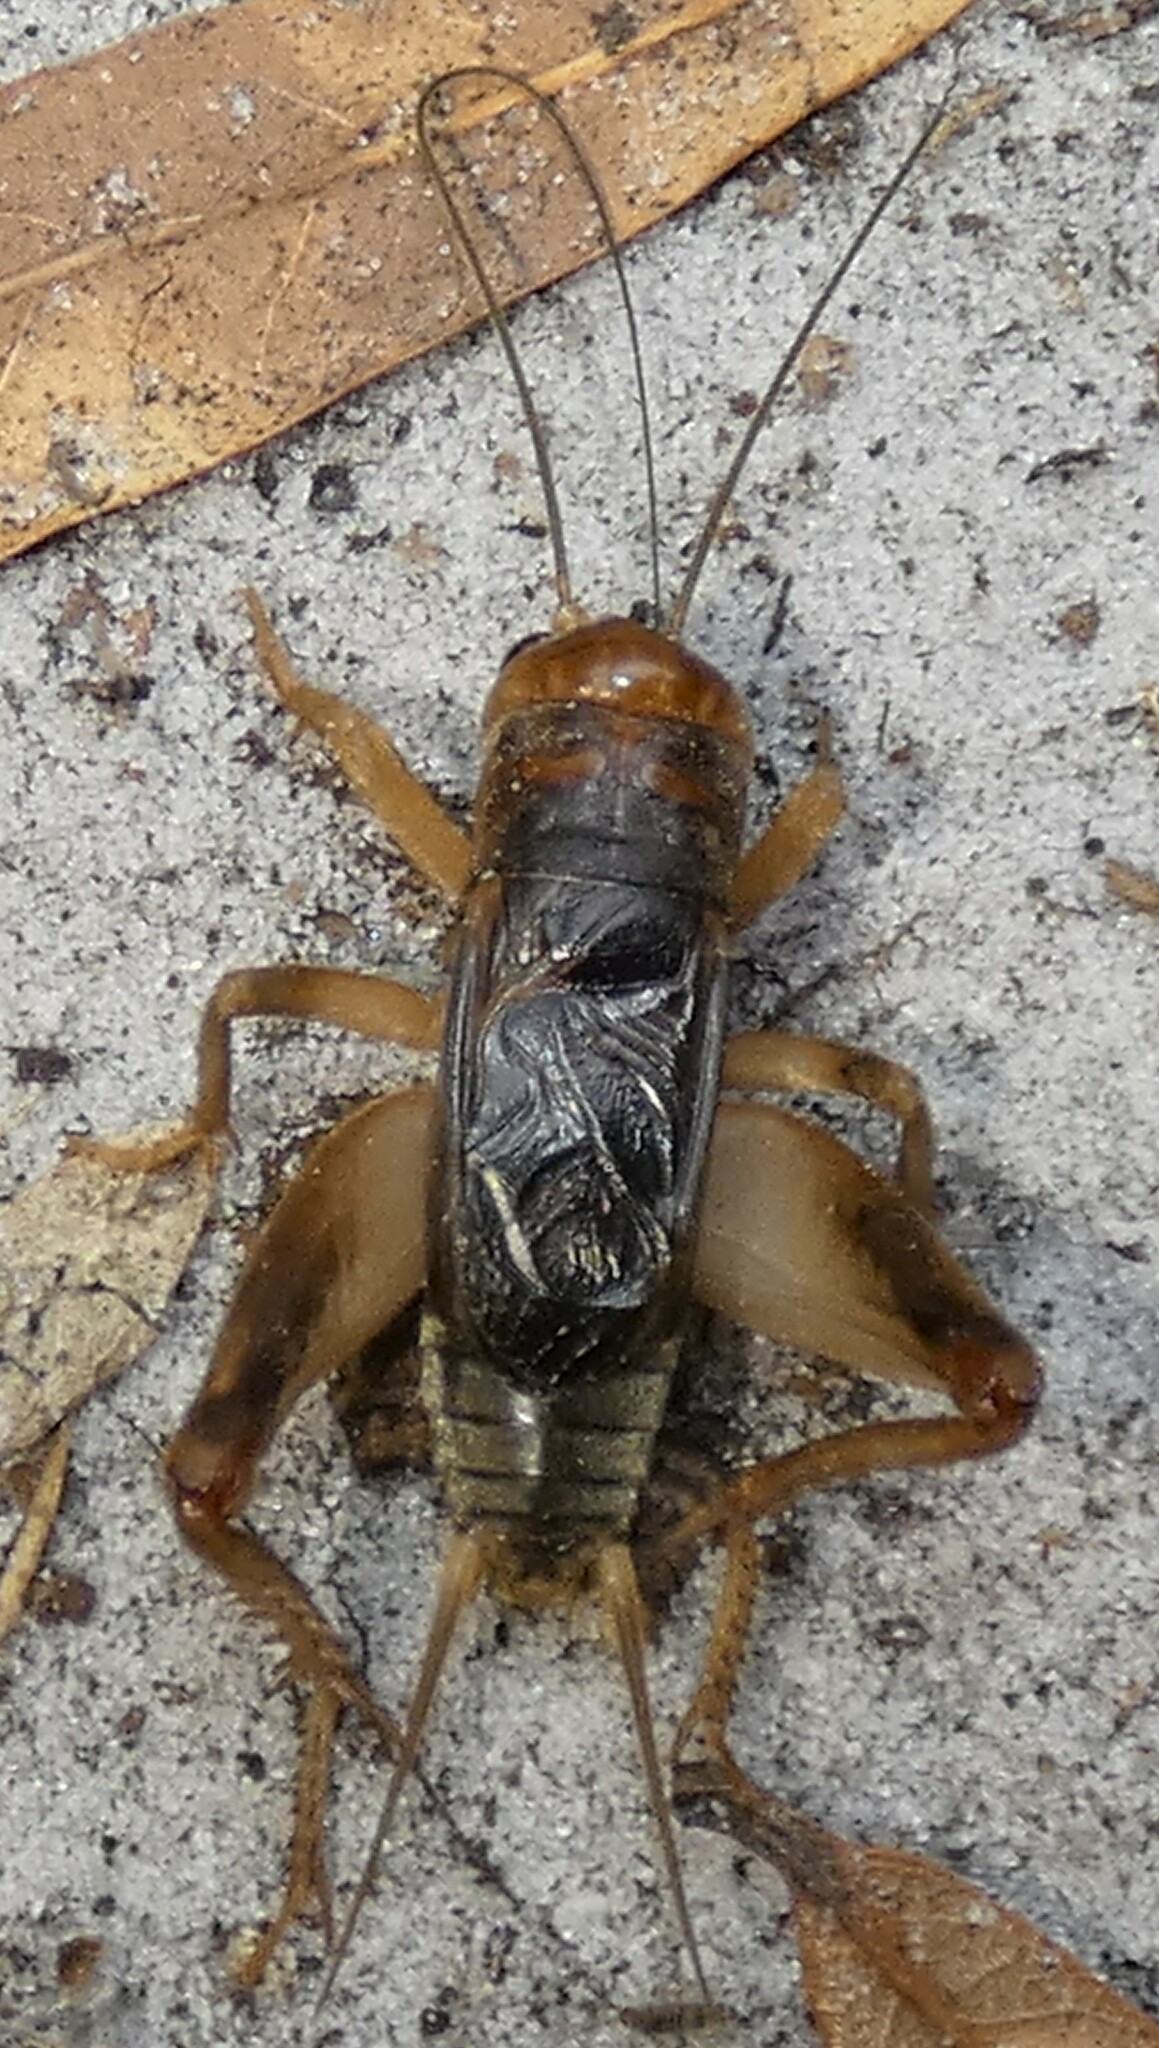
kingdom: Animalia
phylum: Arthropoda
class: Insecta
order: Orthoptera
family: Gryllidae
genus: Anurogryllus
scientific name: Anurogryllus arboreus
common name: Common short-tailed cricket
